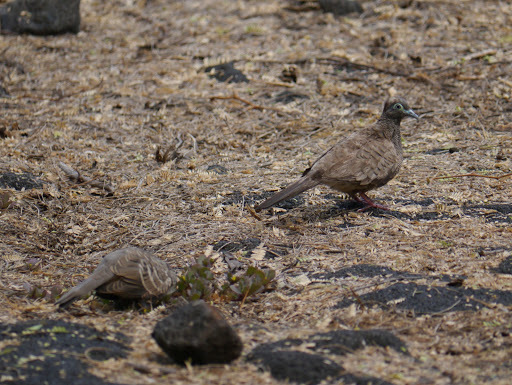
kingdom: Animalia
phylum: Chordata
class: Aves
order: Columbiformes
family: Columbidae
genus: Geopelia
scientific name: Geopelia striata
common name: Zebra dove
